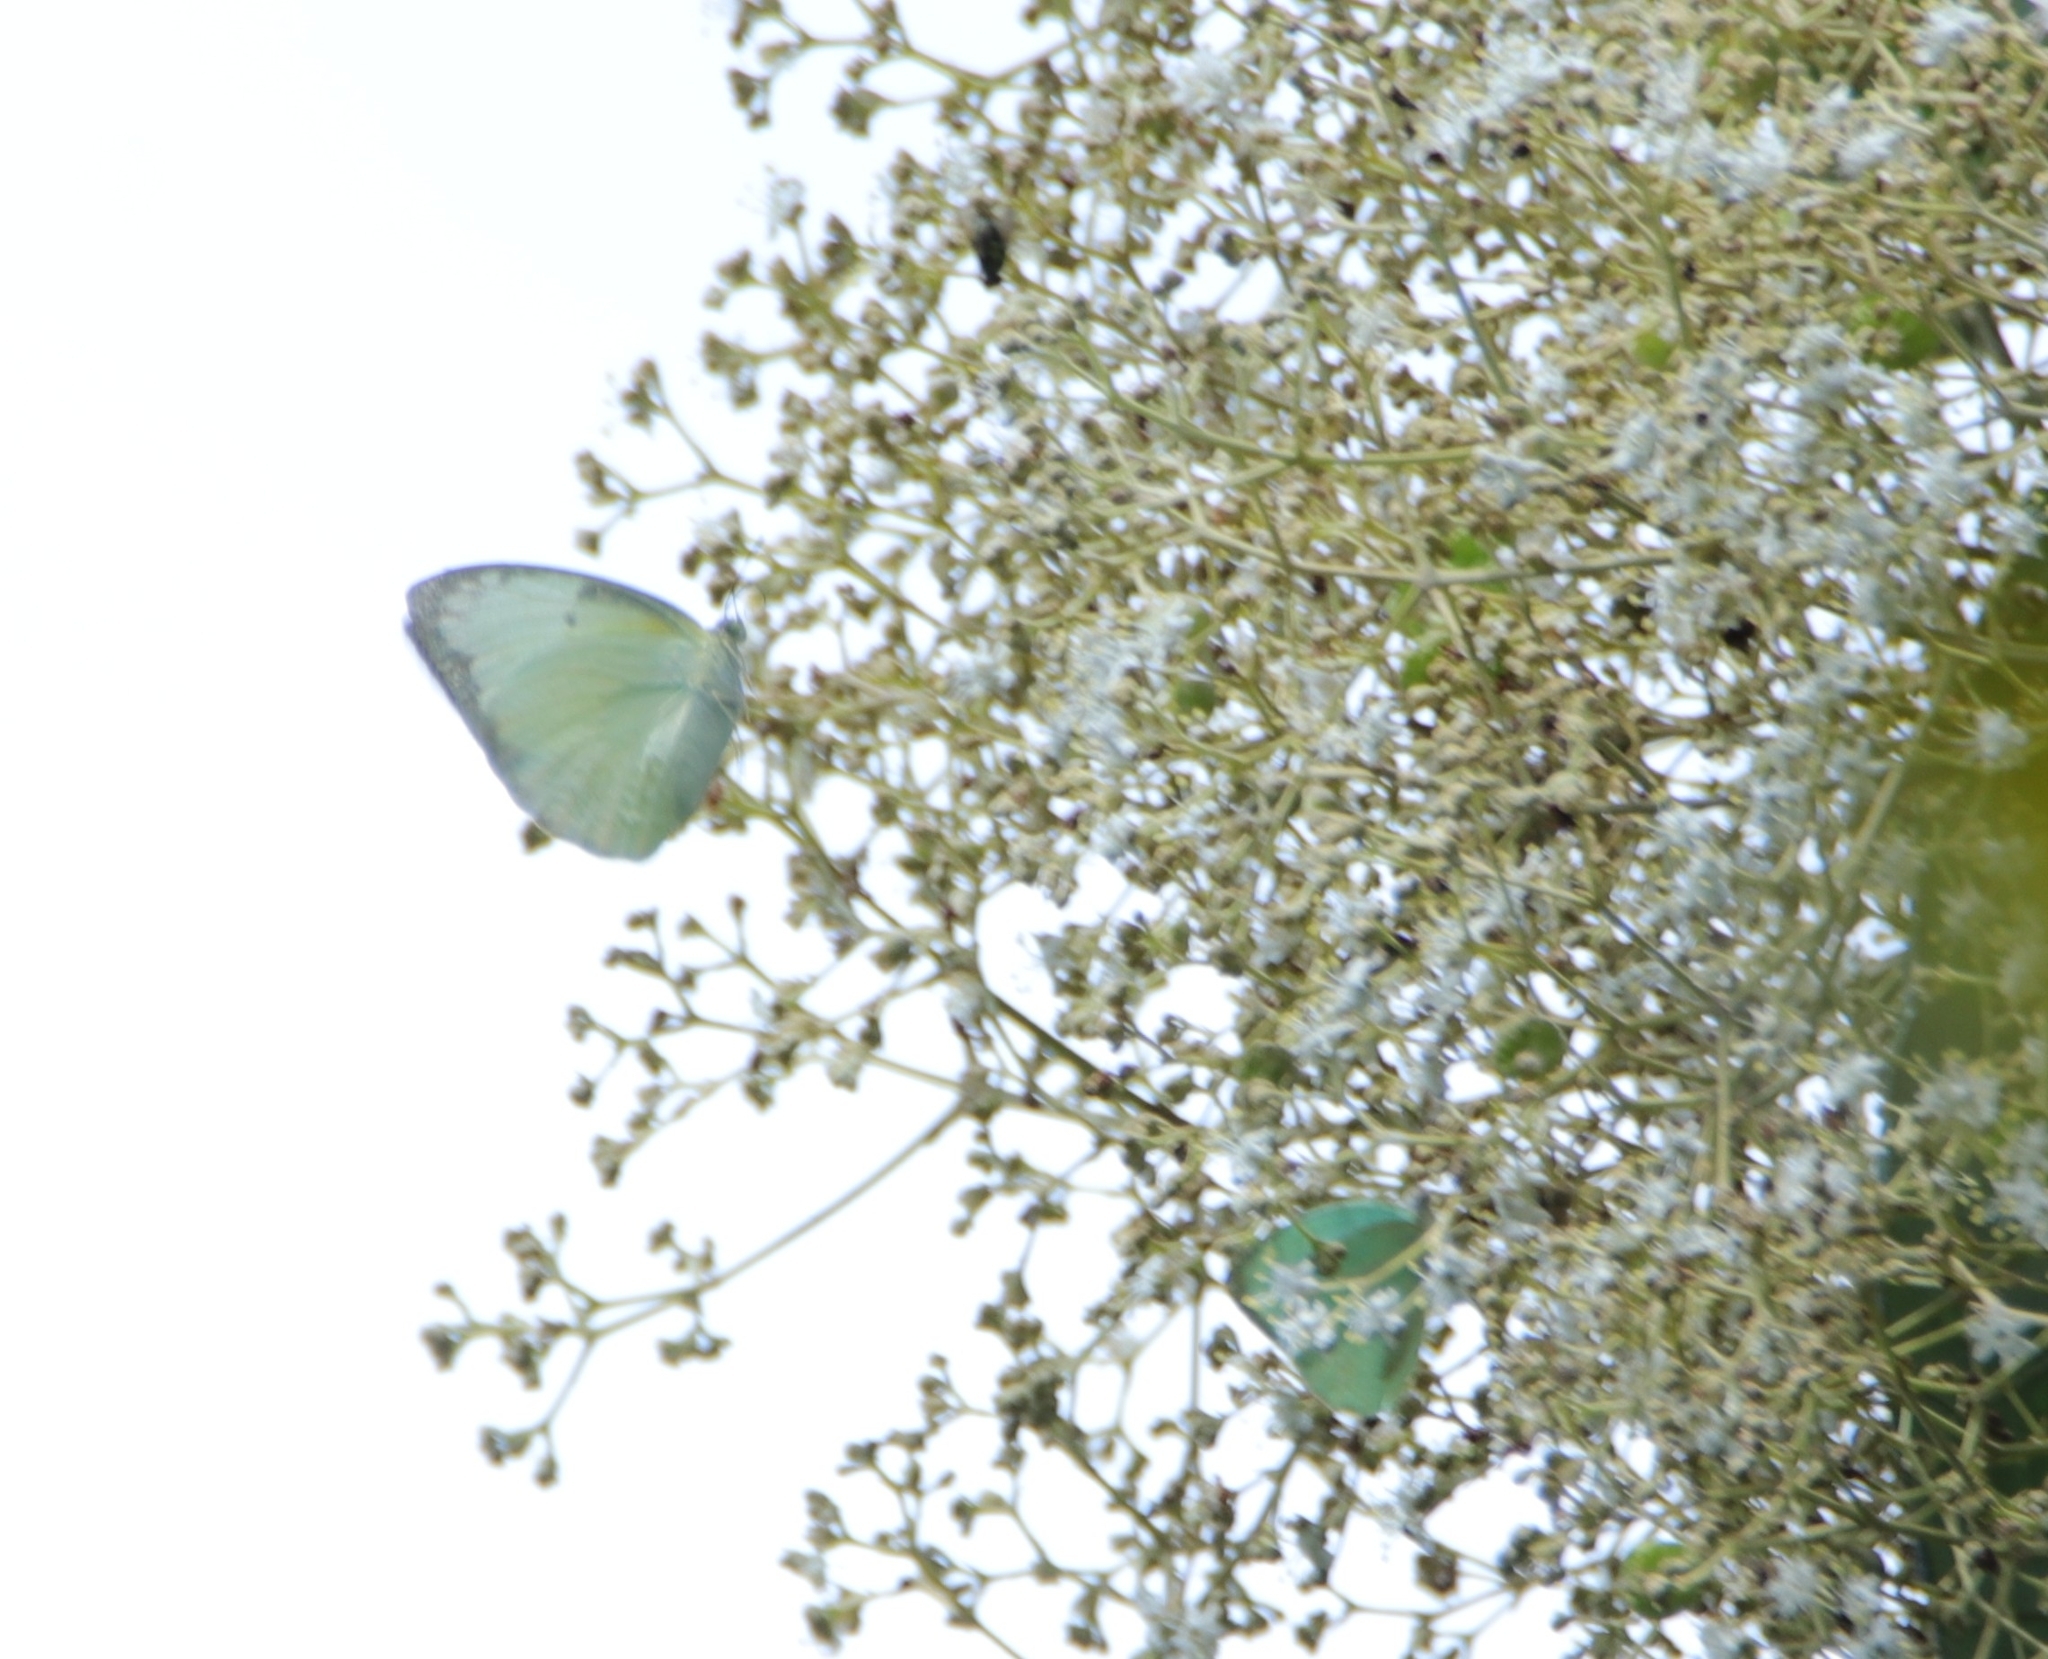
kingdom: Animalia
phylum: Arthropoda
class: Insecta
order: Lepidoptera
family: Pieridae
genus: Catopsilia
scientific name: Catopsilia pomona
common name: Common emigrant
